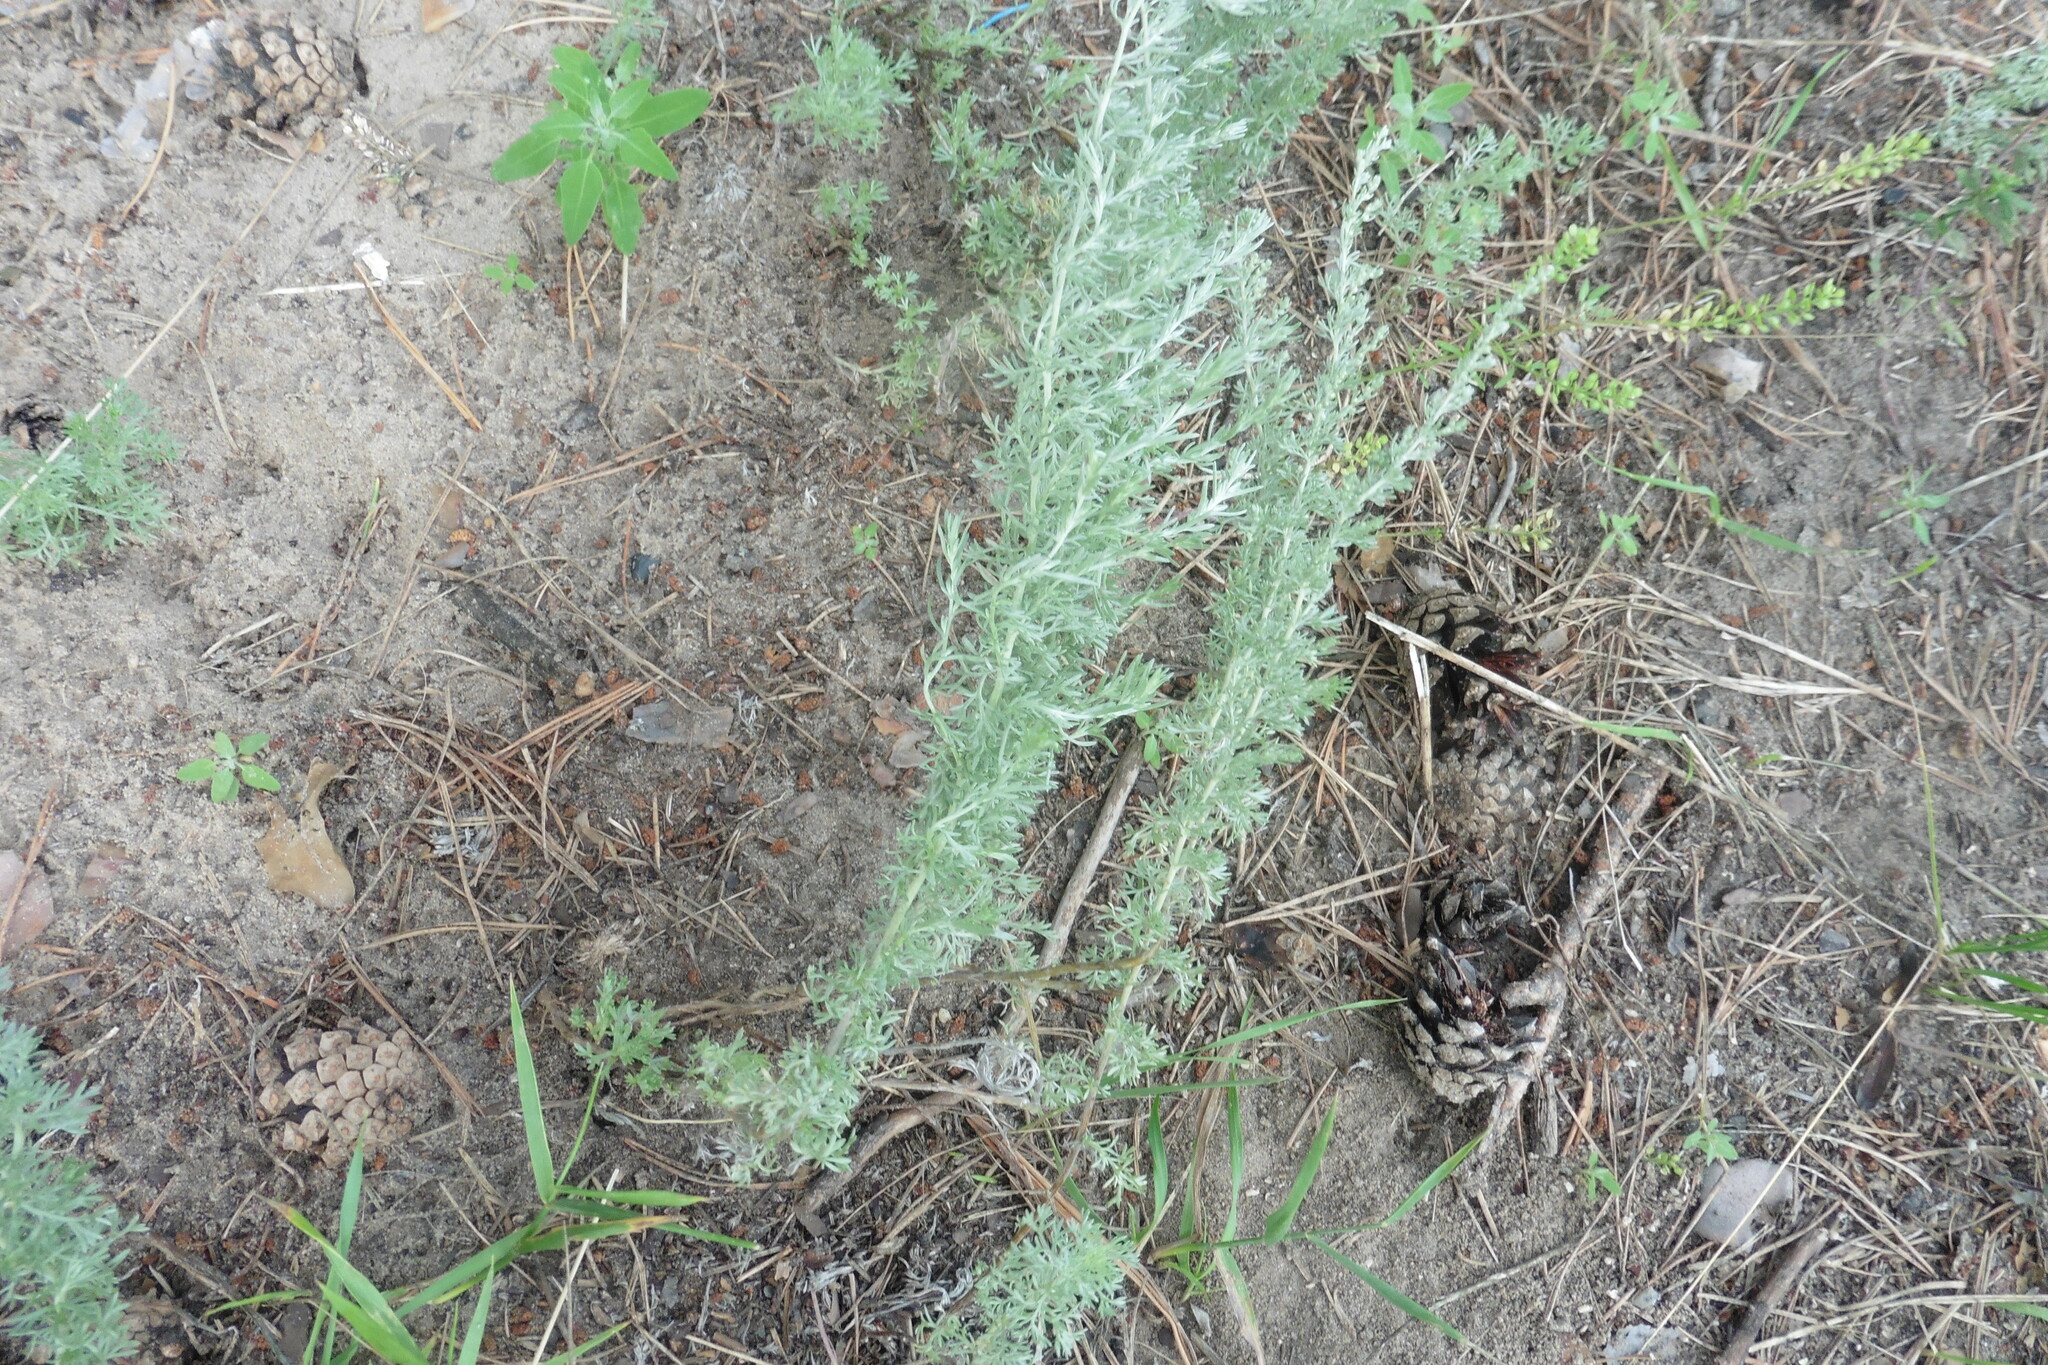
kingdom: Plantae
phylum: Tracheophyta
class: Magnoliopsida
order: Asterales
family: Asteraceae
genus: Artemisia
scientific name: Artemisia austriaca
